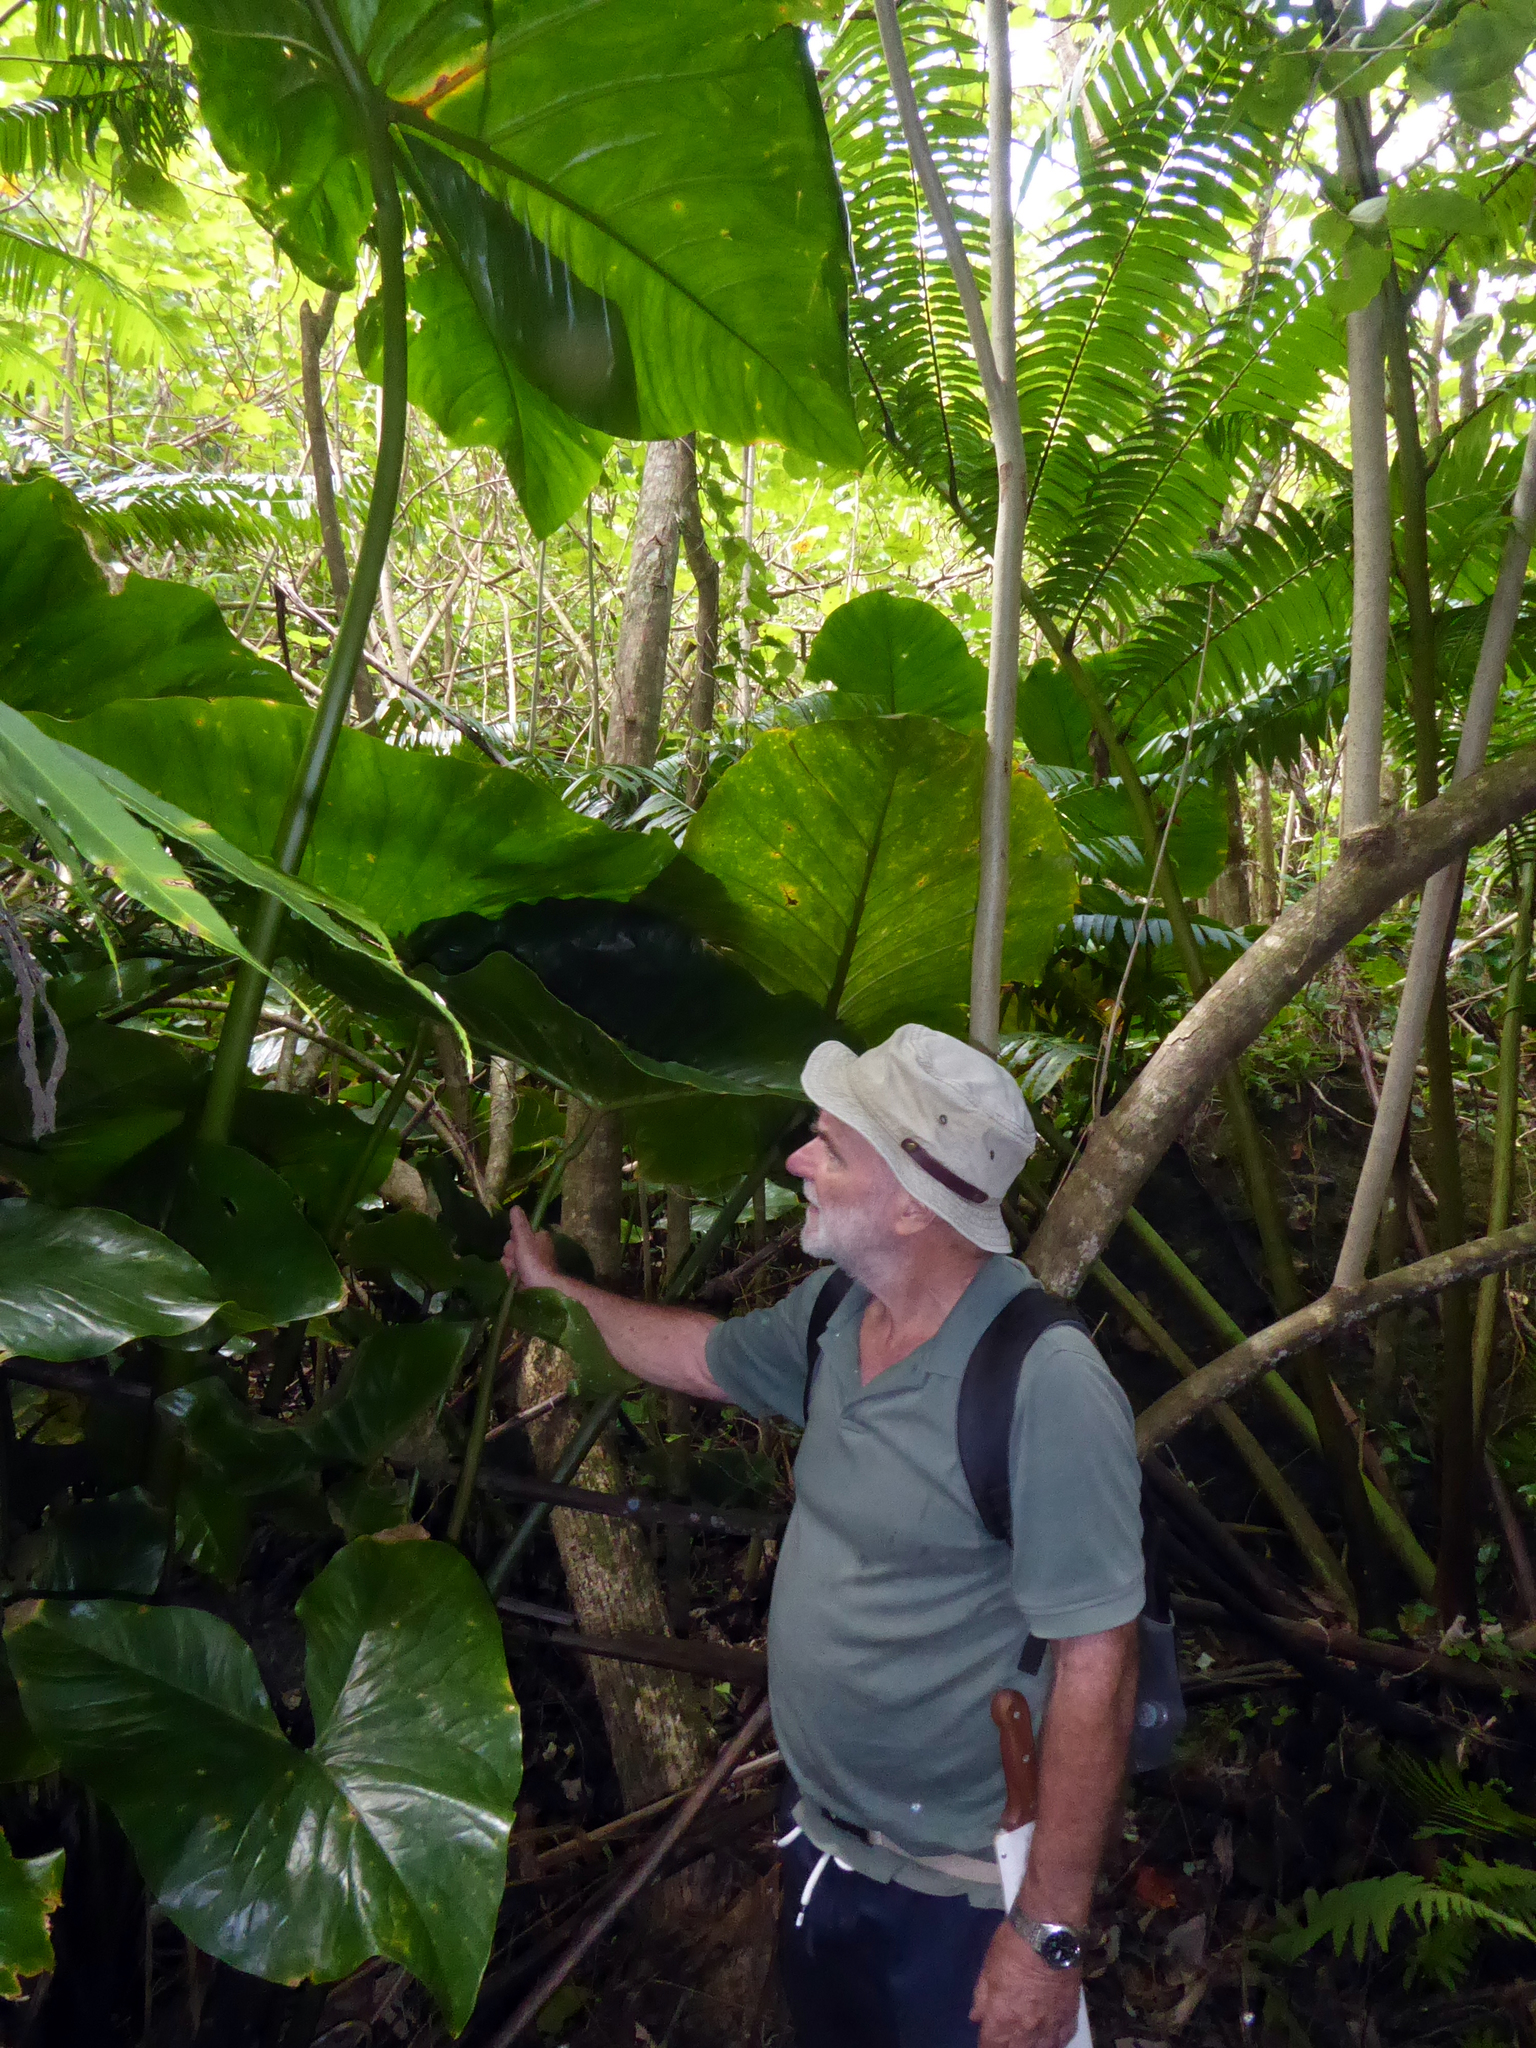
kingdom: Plantae
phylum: Tracheophyta
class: Liliopsida
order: Alismatales
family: Araceae
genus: Cyrtosperma
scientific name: Cyrtosperma merkusii
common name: Giant swamp-taro
